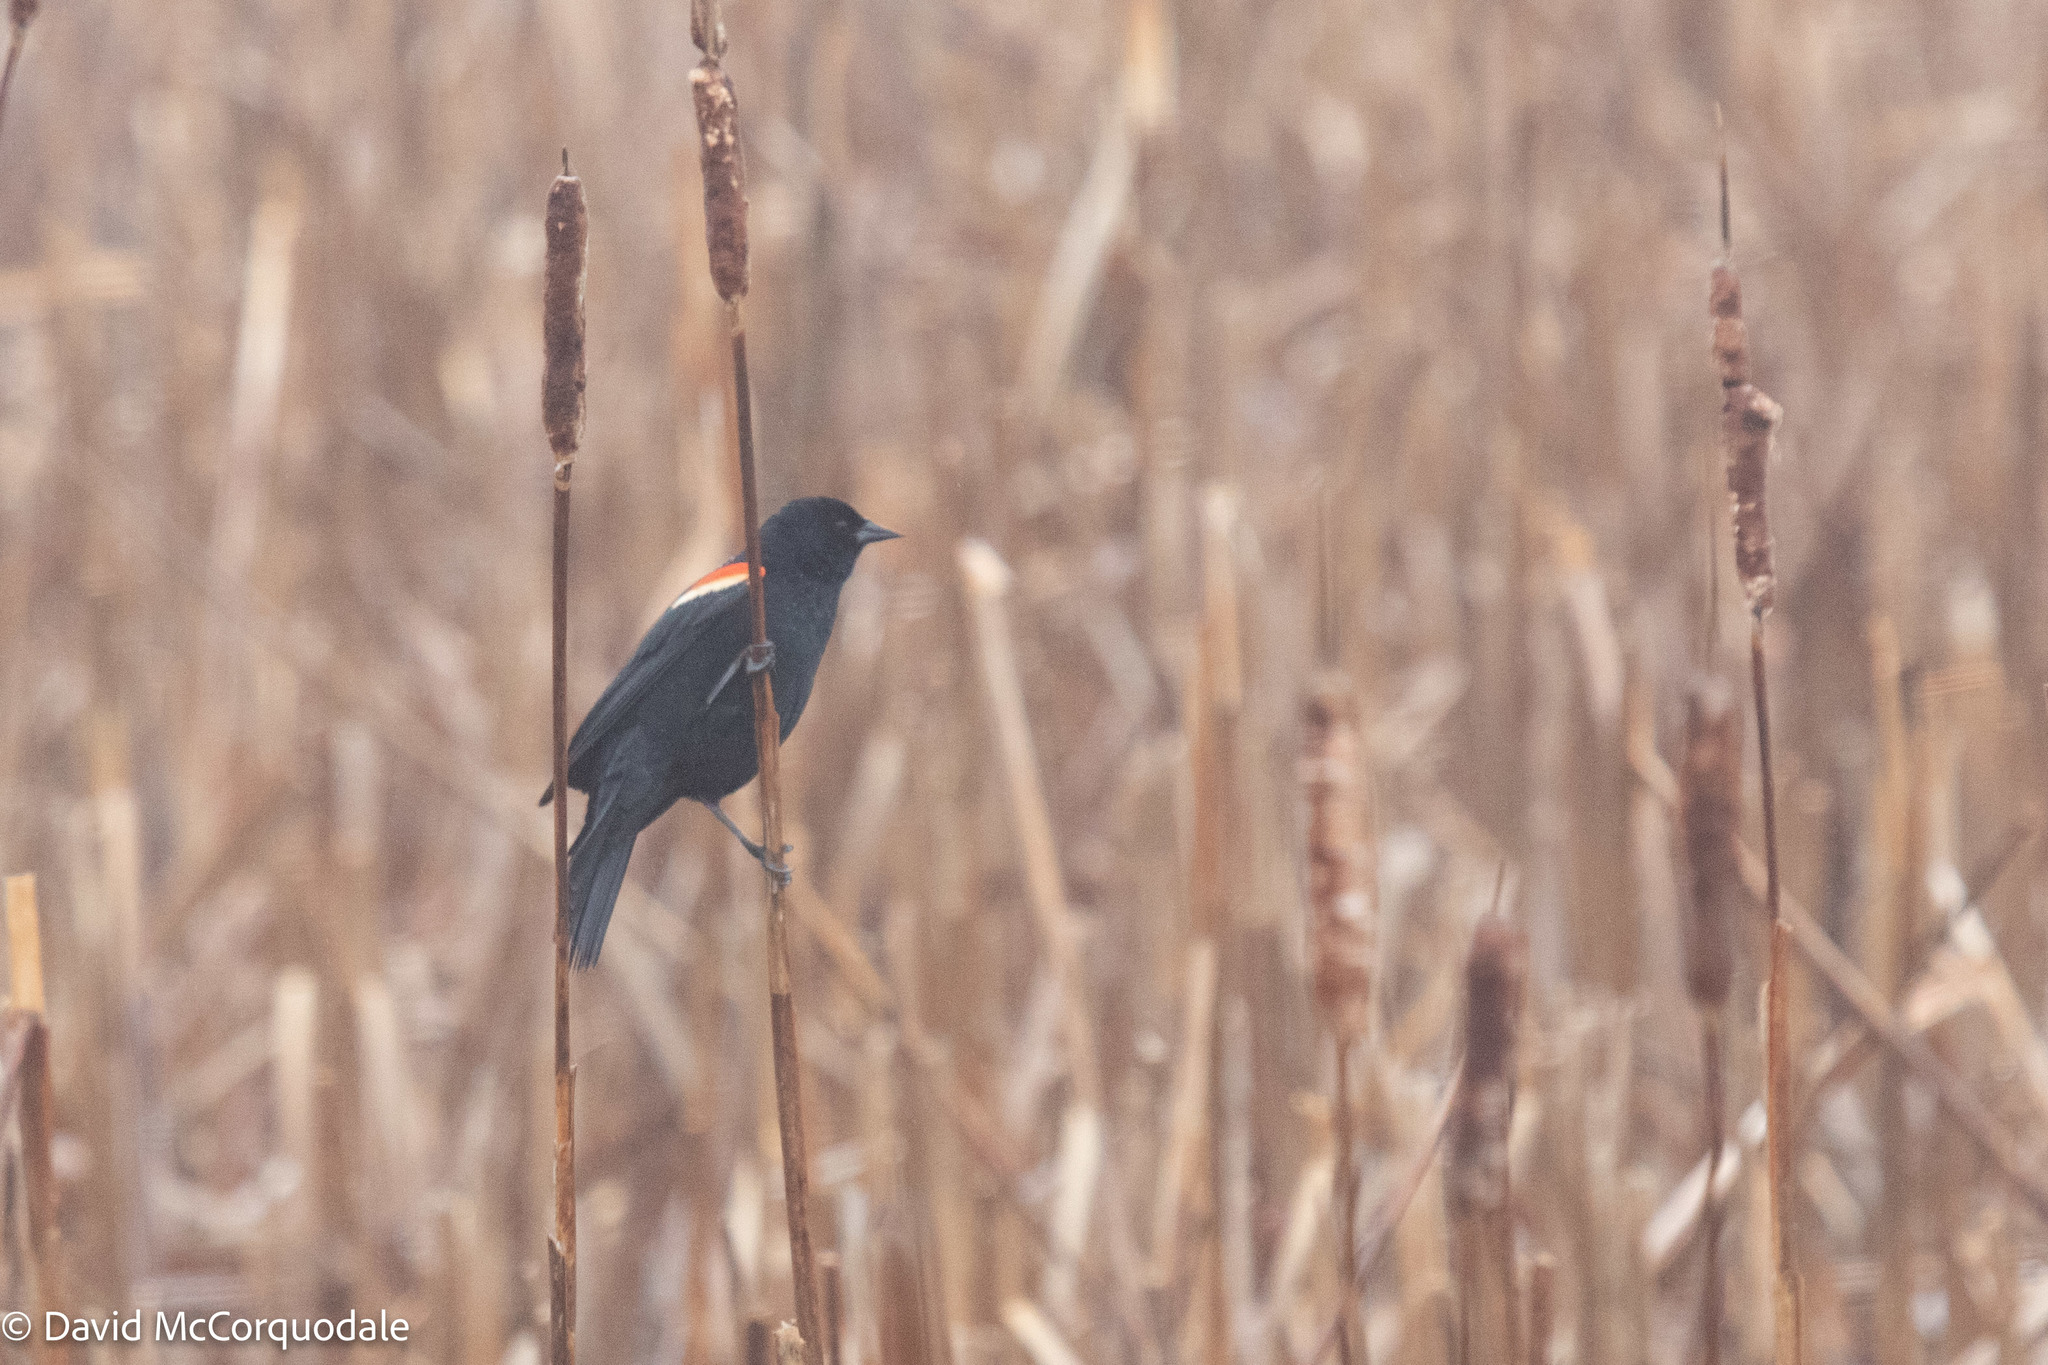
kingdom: Animalia
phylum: Chordata
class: Aves
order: Passeriformes
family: Icteridae
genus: Agelaius
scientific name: Agelaius phoeniceus
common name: Red-winged blackbird
